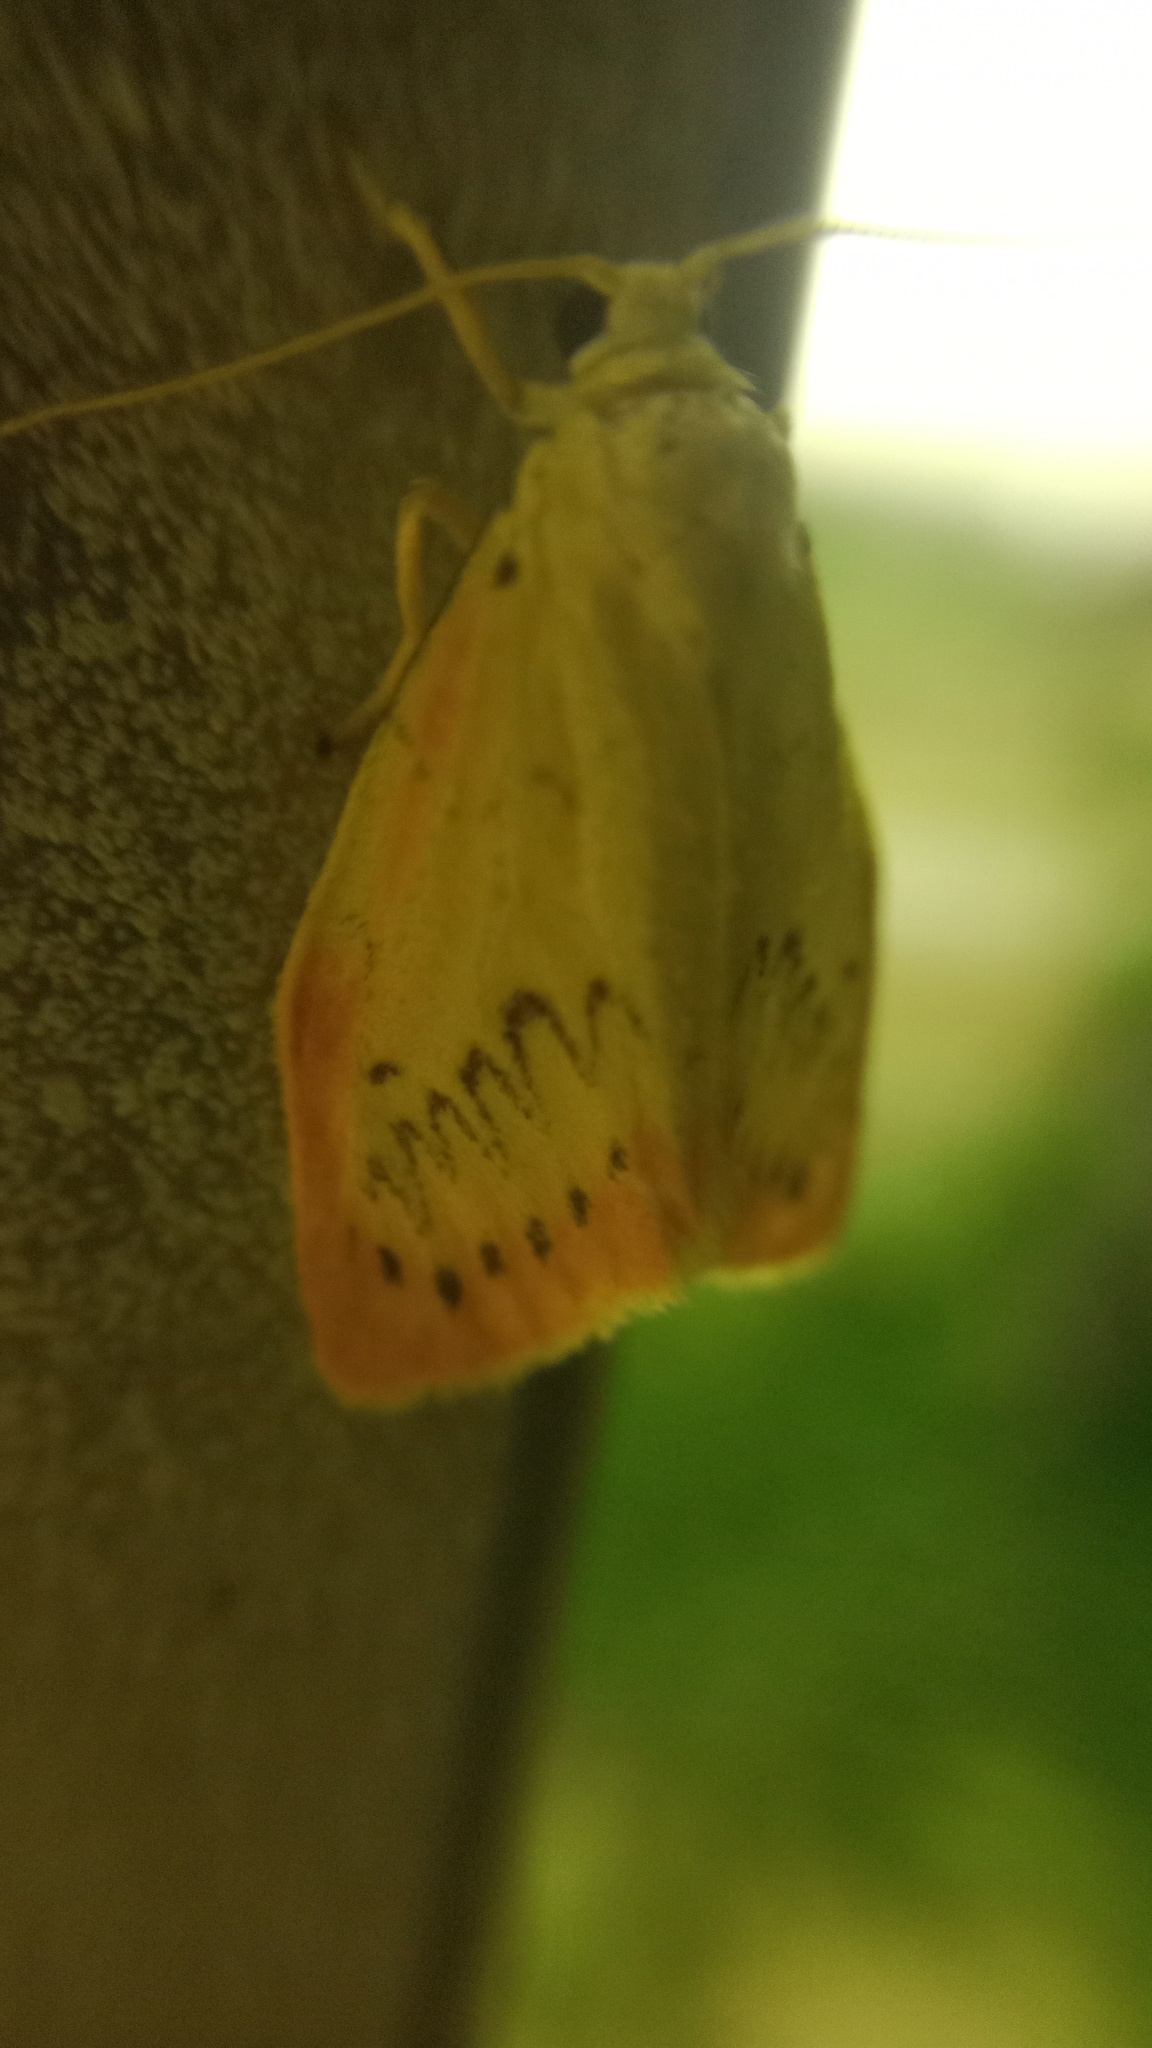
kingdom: Animalia
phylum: Arthropoda
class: Insecta
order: Lepidoptera
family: Erebidae
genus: Miltochrista
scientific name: Miltochrista miniata
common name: Rosy footman
